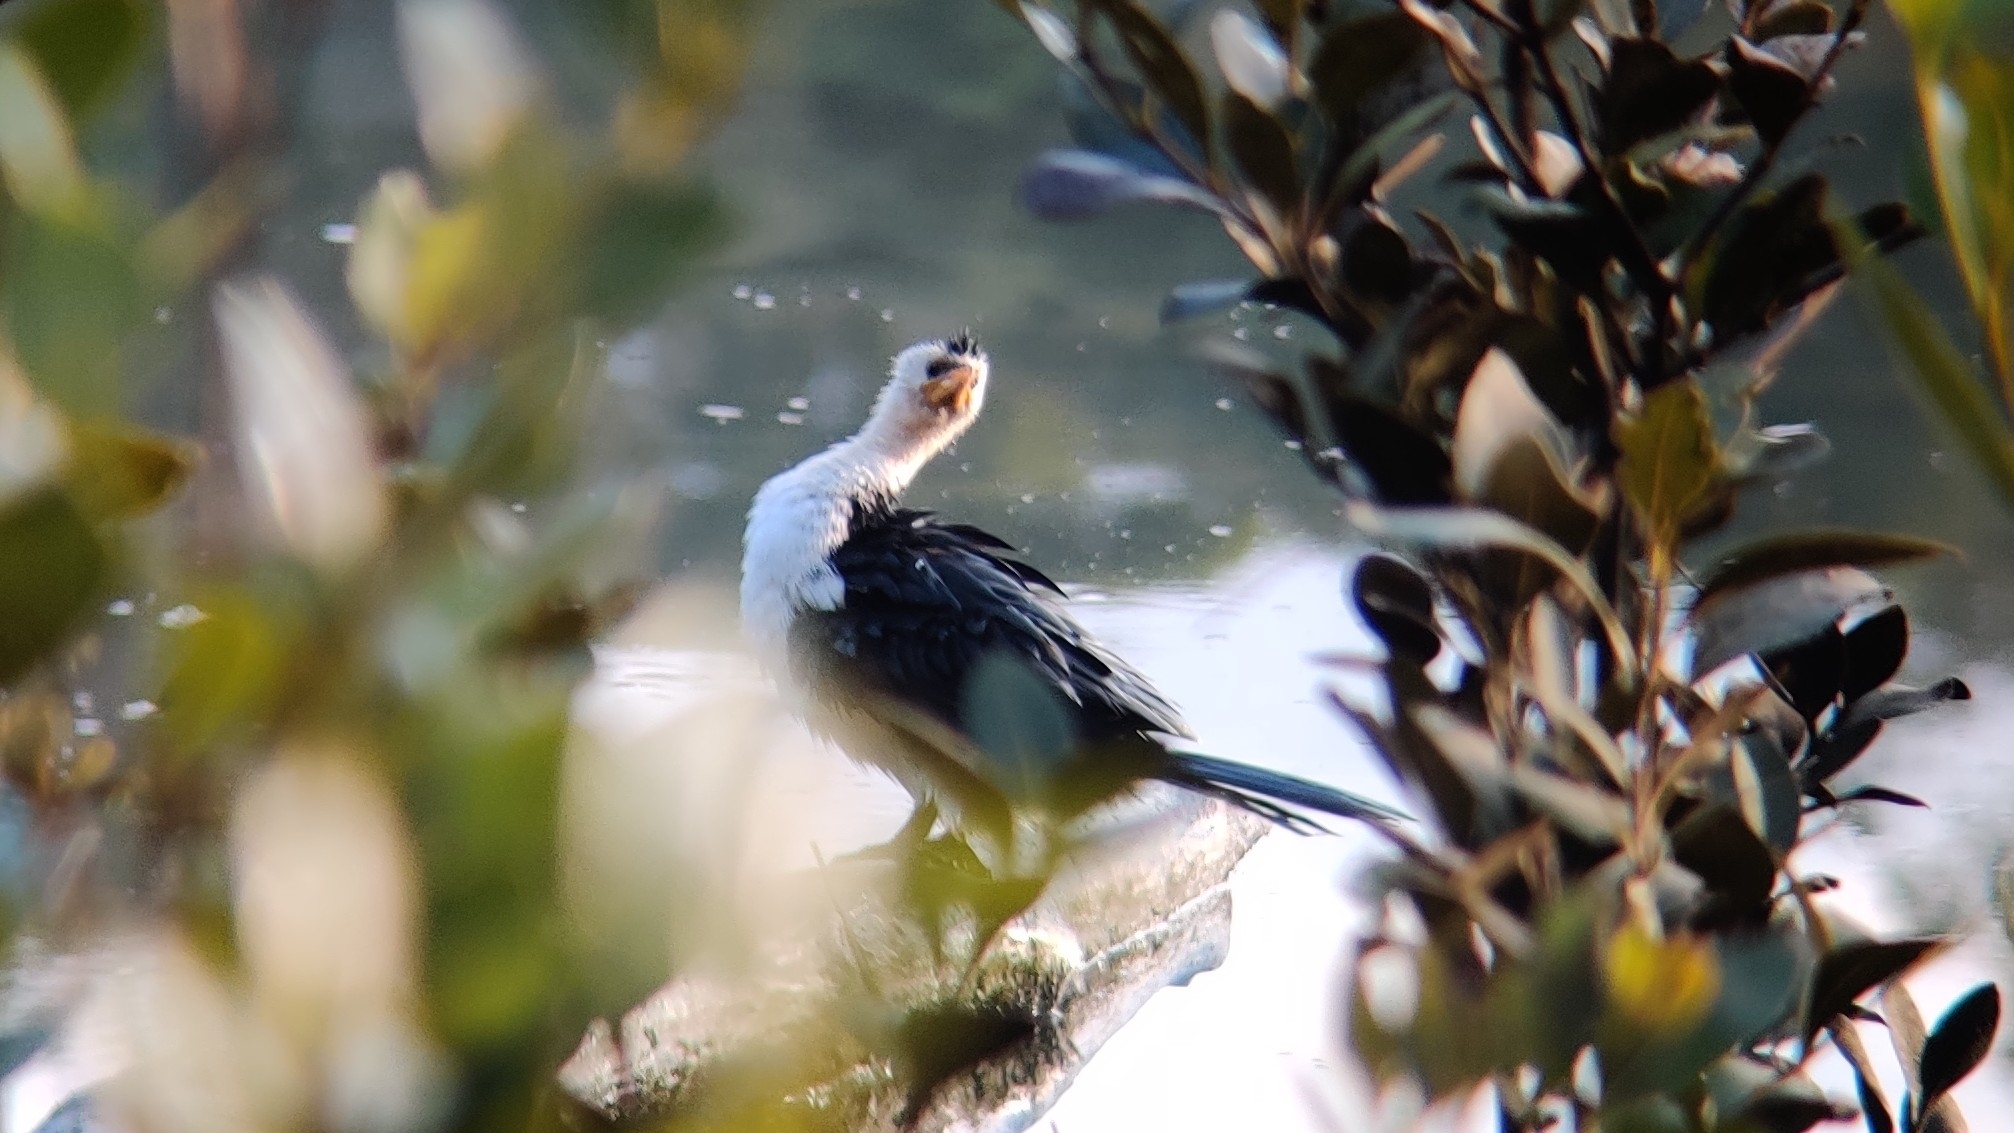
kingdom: Animalia
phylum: Chordata
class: Aves
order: Suliformes
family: Phalacrocoracidae
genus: Microcarbo
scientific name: Microcarbo melanoleucos
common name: Little pied cormorant
